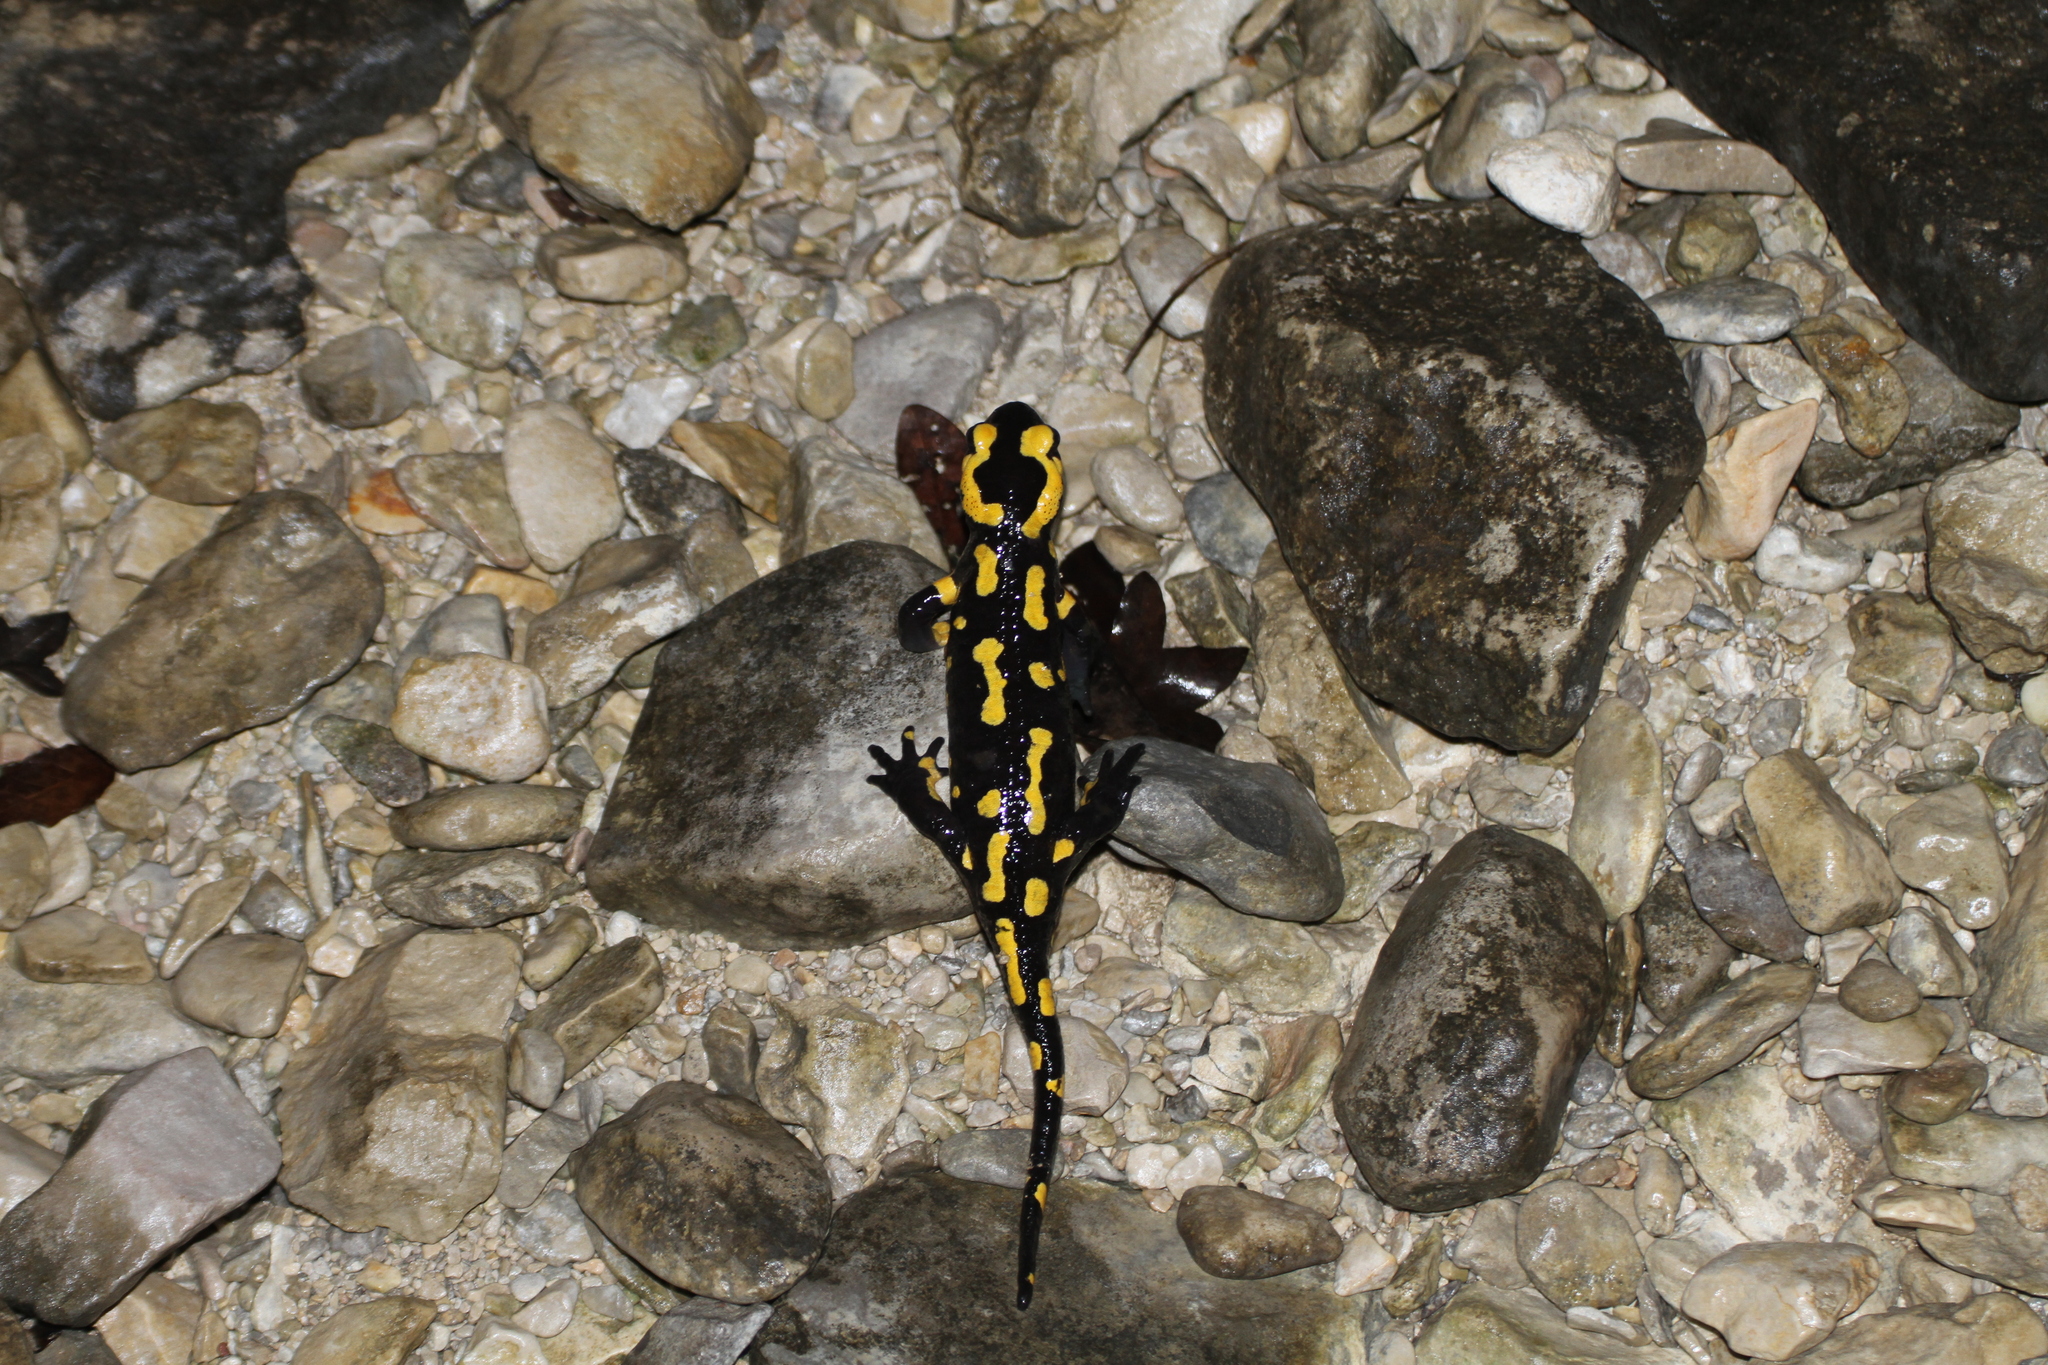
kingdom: Animalia
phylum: Chordata
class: Amphibia
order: Caudata
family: Salamandridae
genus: Salamandra
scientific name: Salamandra salamandra
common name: Fire salamander
